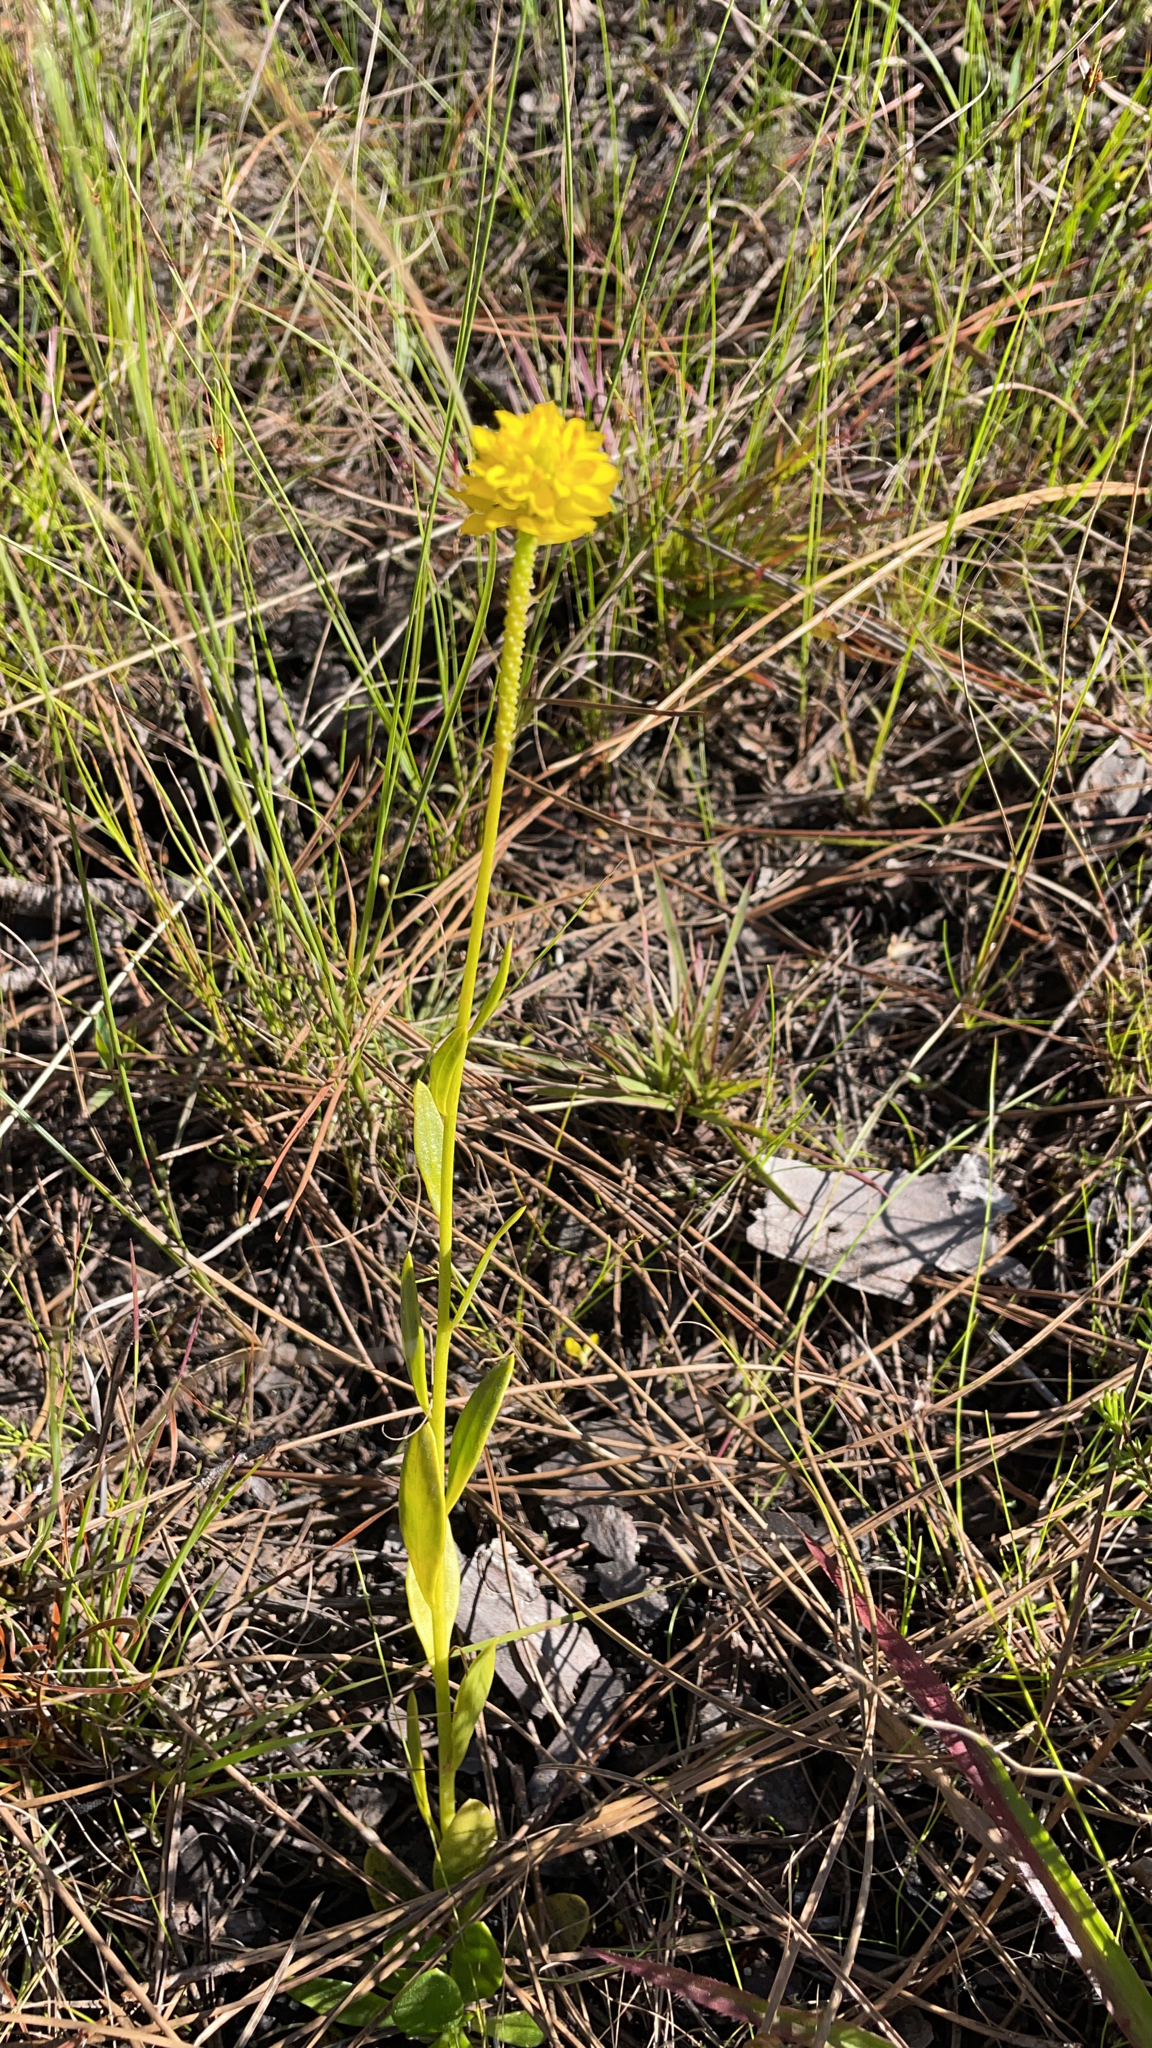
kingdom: Plantae
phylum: Tracheophyta
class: Magnoliopsida
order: Fabales
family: Polygalaceae
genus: Polygala
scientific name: Polygala rugelii
